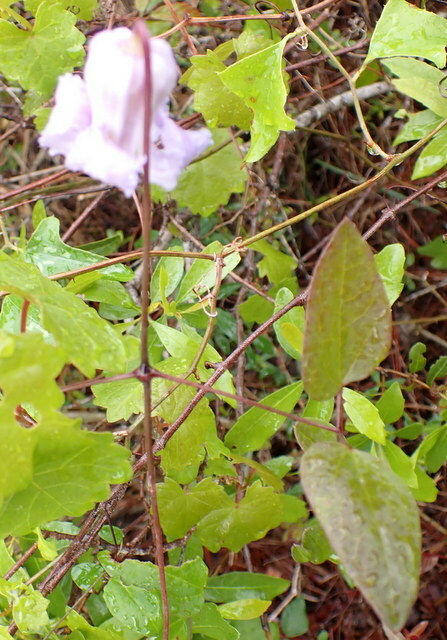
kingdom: Plantae
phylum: Tracheophyta
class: Magnoliopsida
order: Ranunculales
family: Ranunculaceae
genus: Clematis
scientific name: Clematis crispa
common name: Curly clematis
